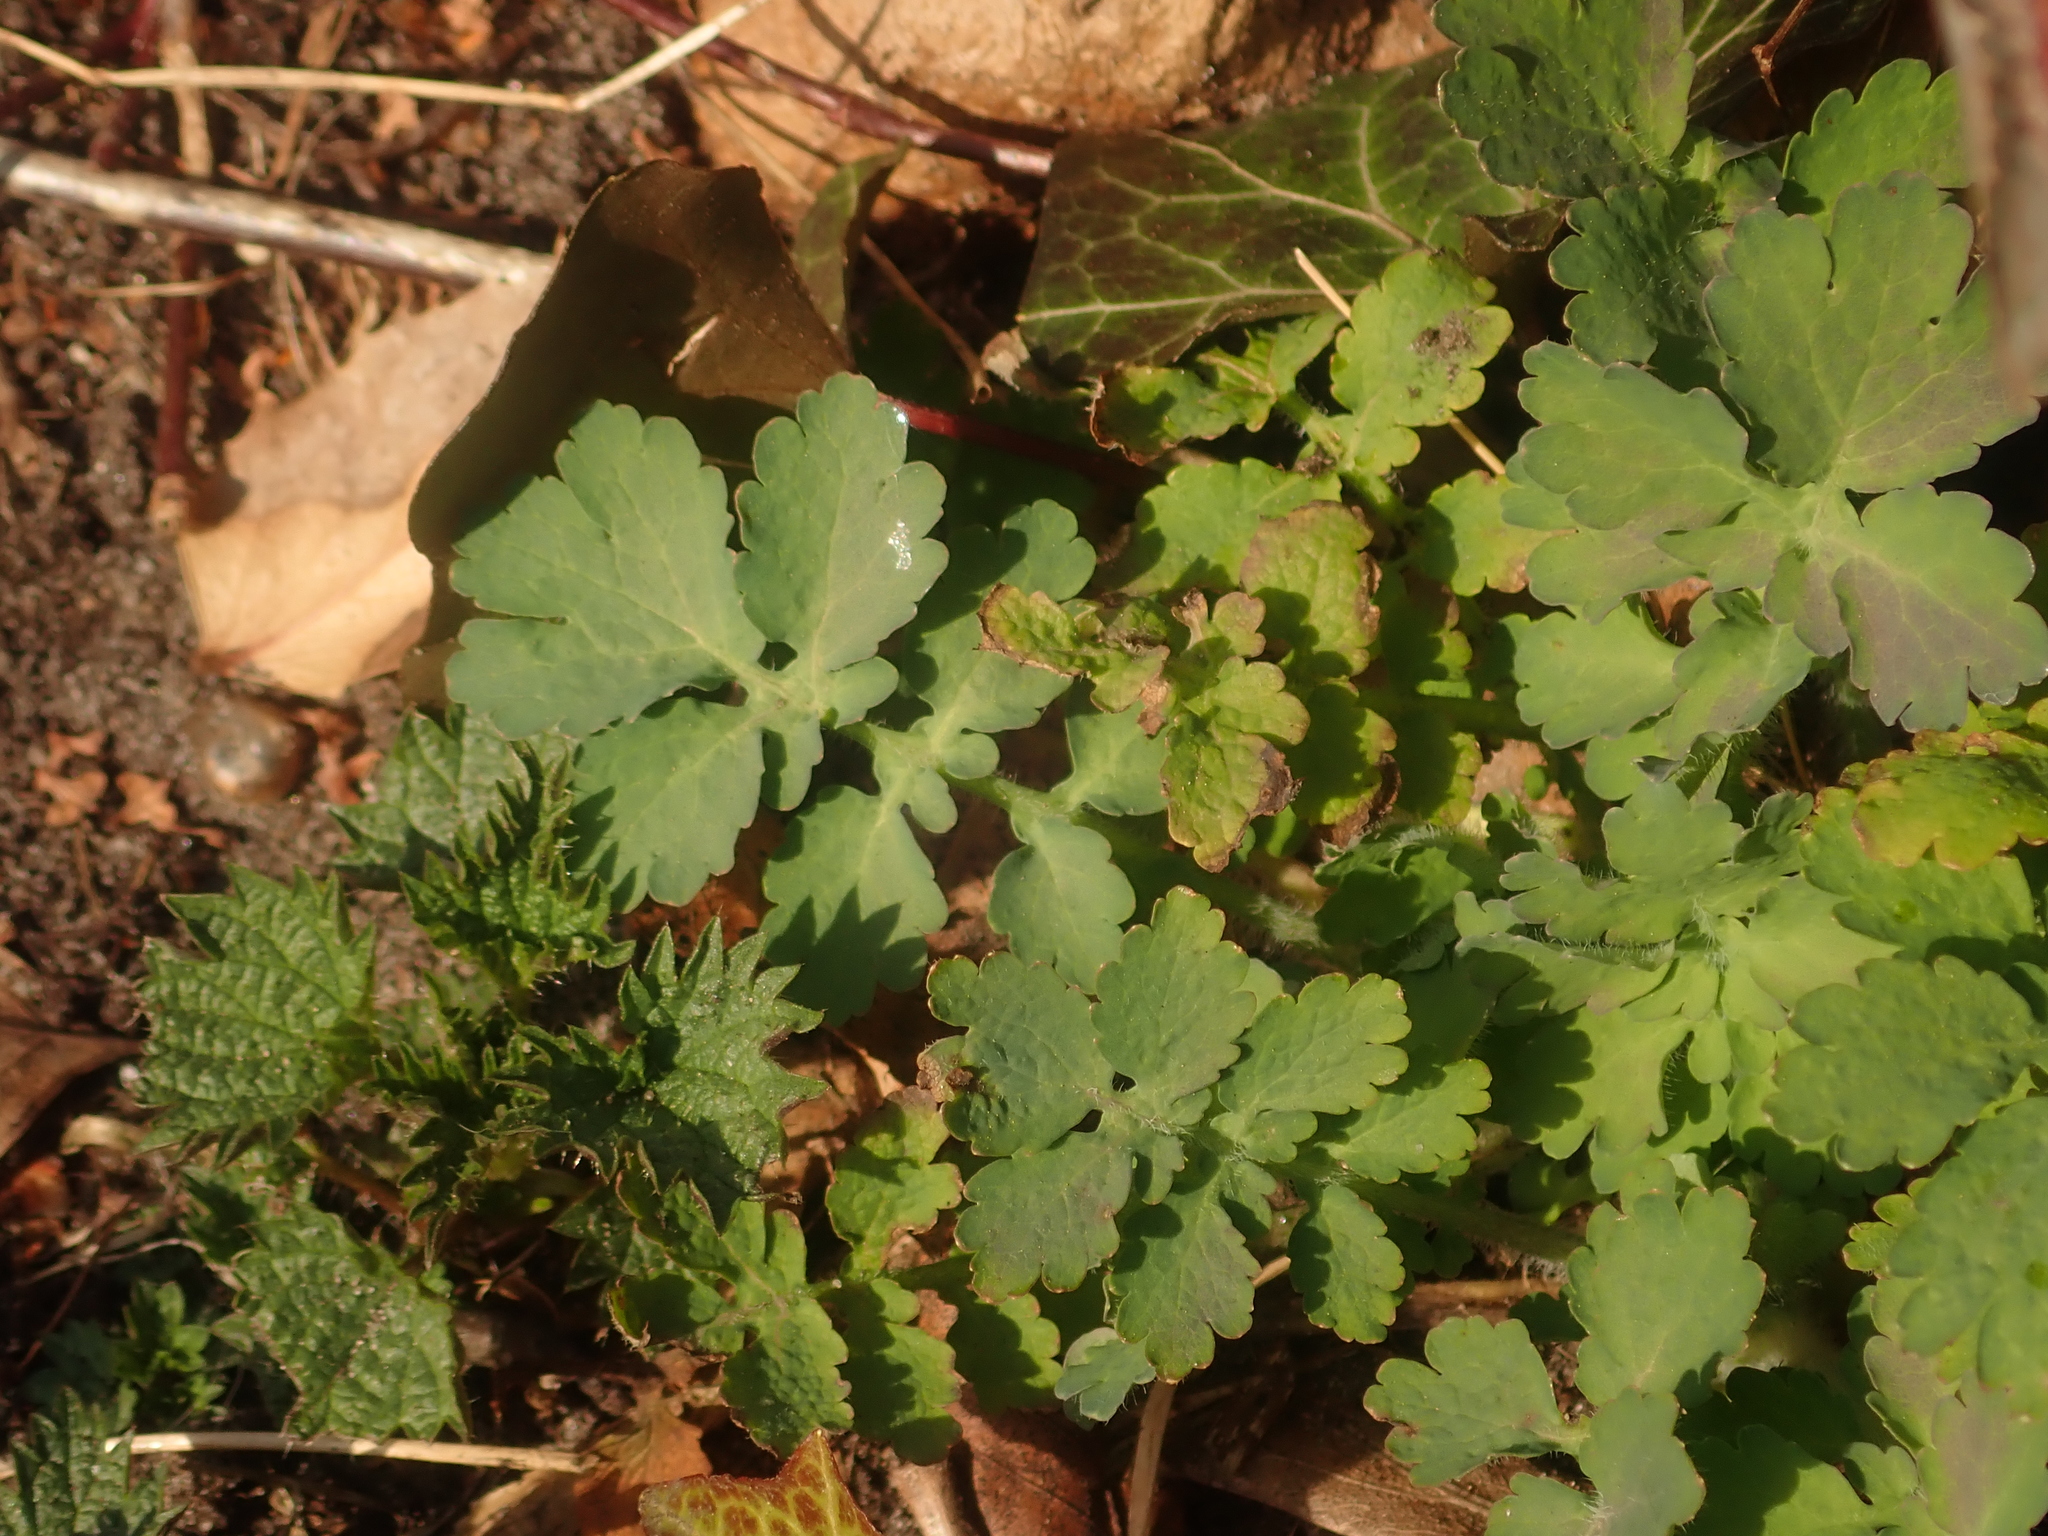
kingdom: Plantae
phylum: Tracheophyta
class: Magnoliopsida
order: Ranunculales
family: Papaveraceae
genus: Chelidonium
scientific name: Chelidonium majus
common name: Greater celandine
